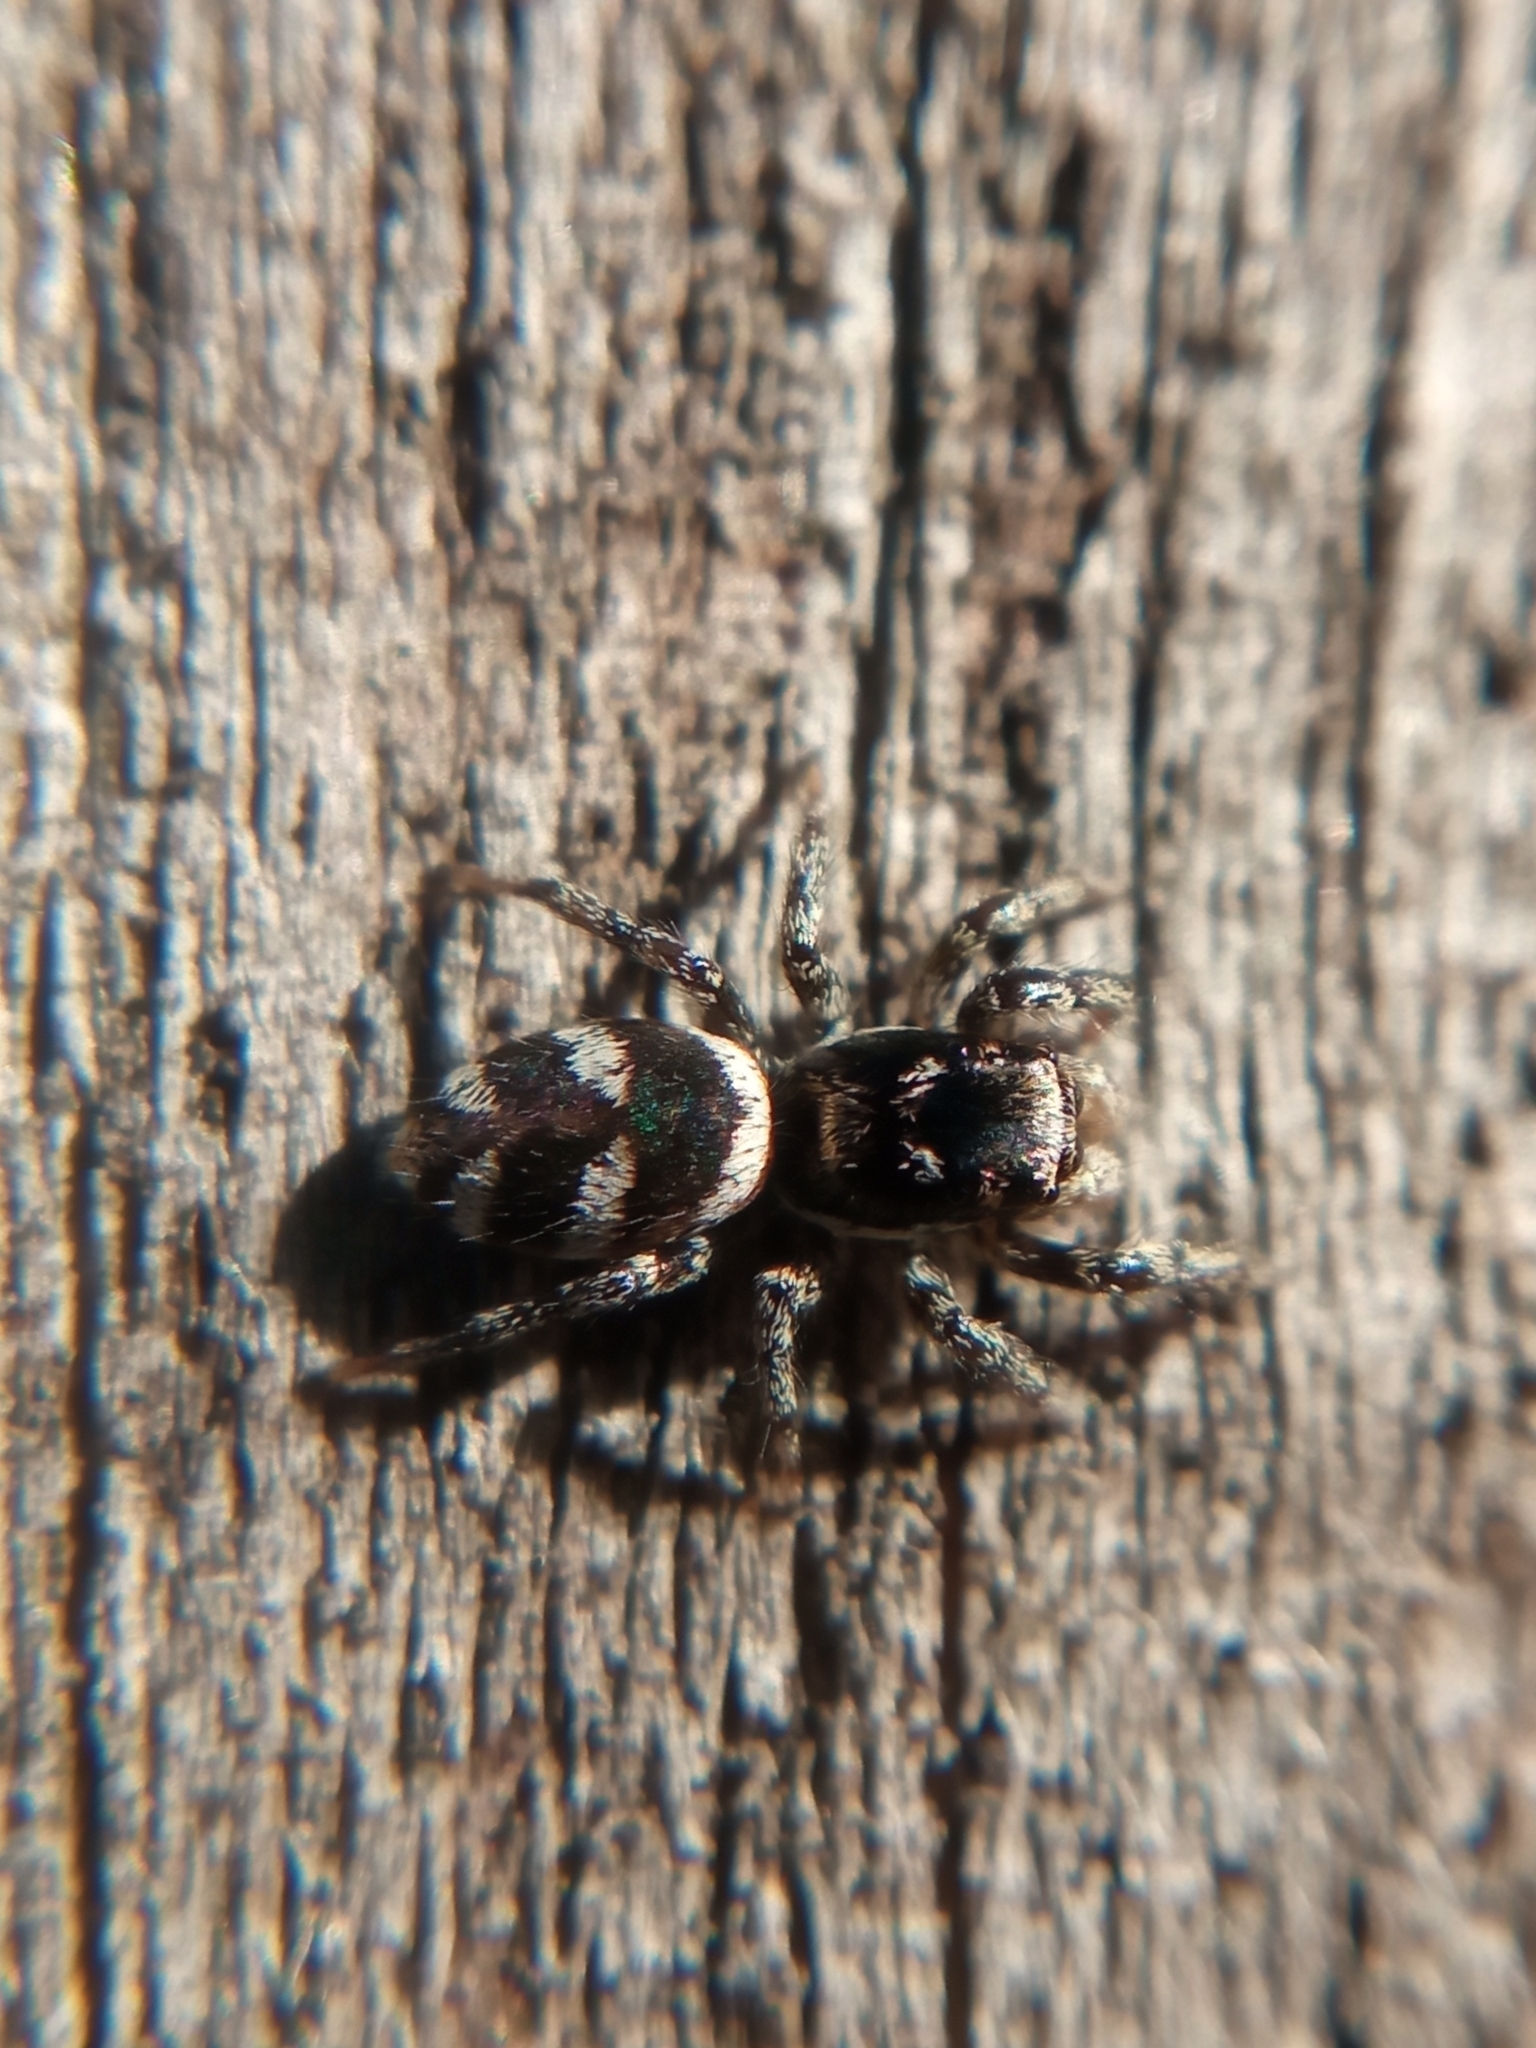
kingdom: Animalia
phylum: Arthropoda
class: Arachnida
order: Araneae
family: Salticidae
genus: Salticus
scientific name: Salticus scenicus
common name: Zebra jumper
